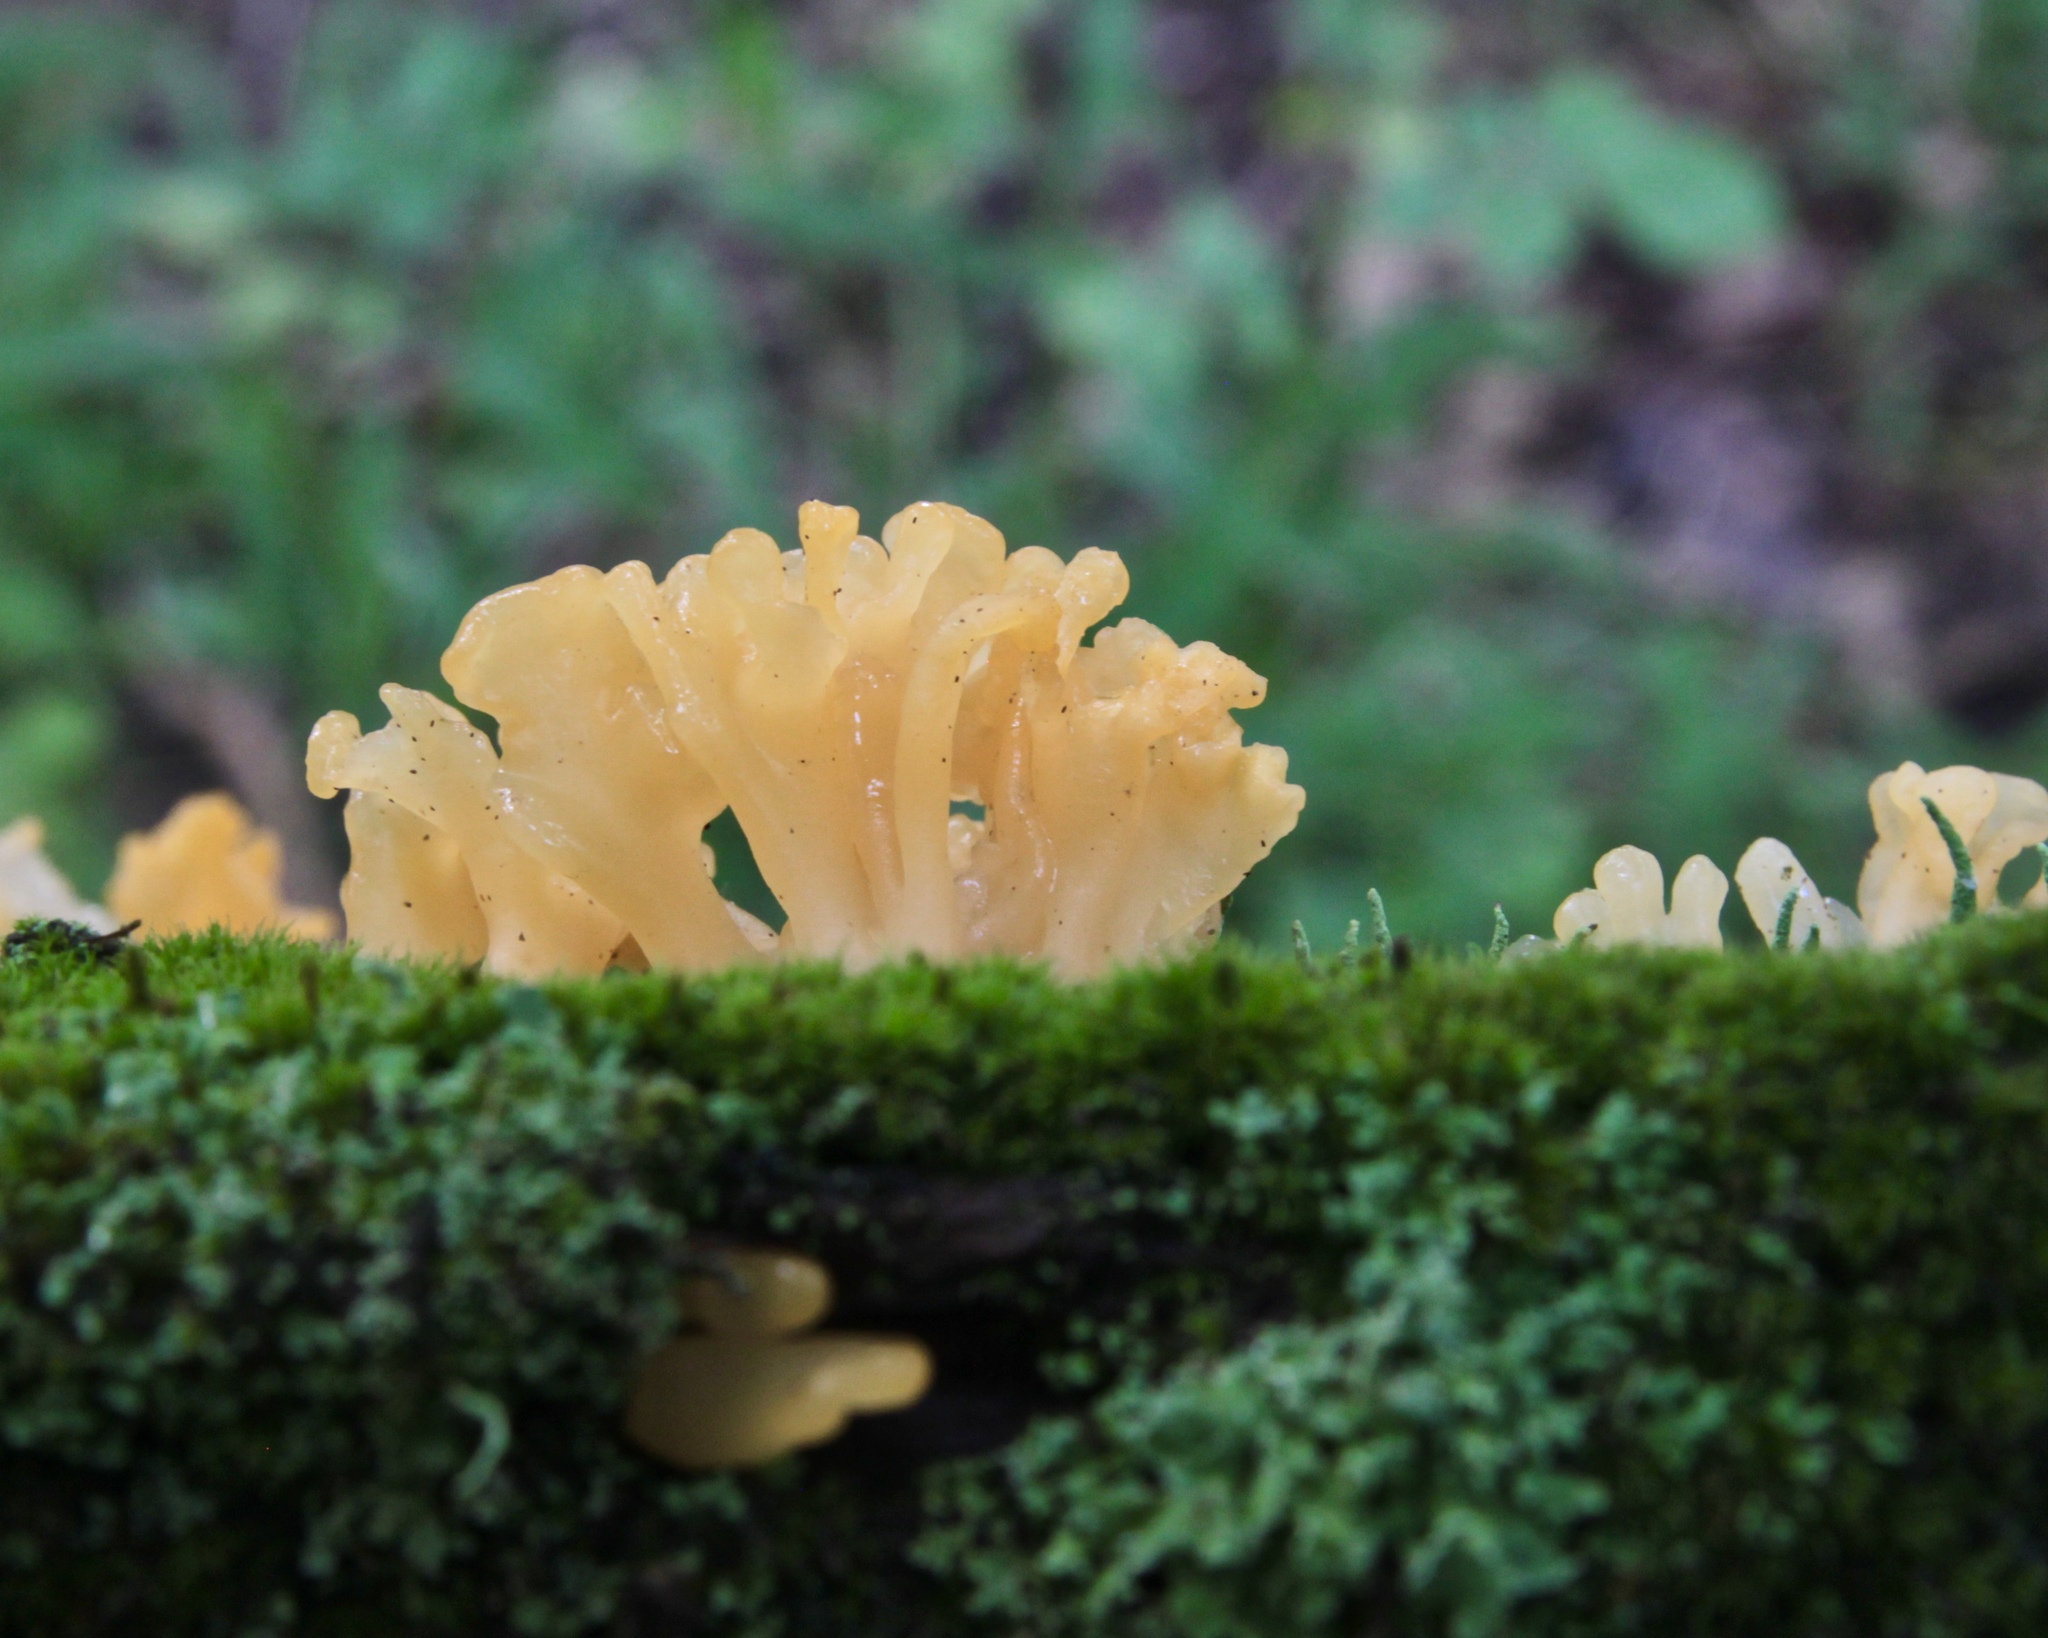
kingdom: Fungi
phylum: Basidiomycota
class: Dacrymycetes
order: Dacrymycetales
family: Dacrymycetaceae
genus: Dacrymyces
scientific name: Dacrymyces spathularius
